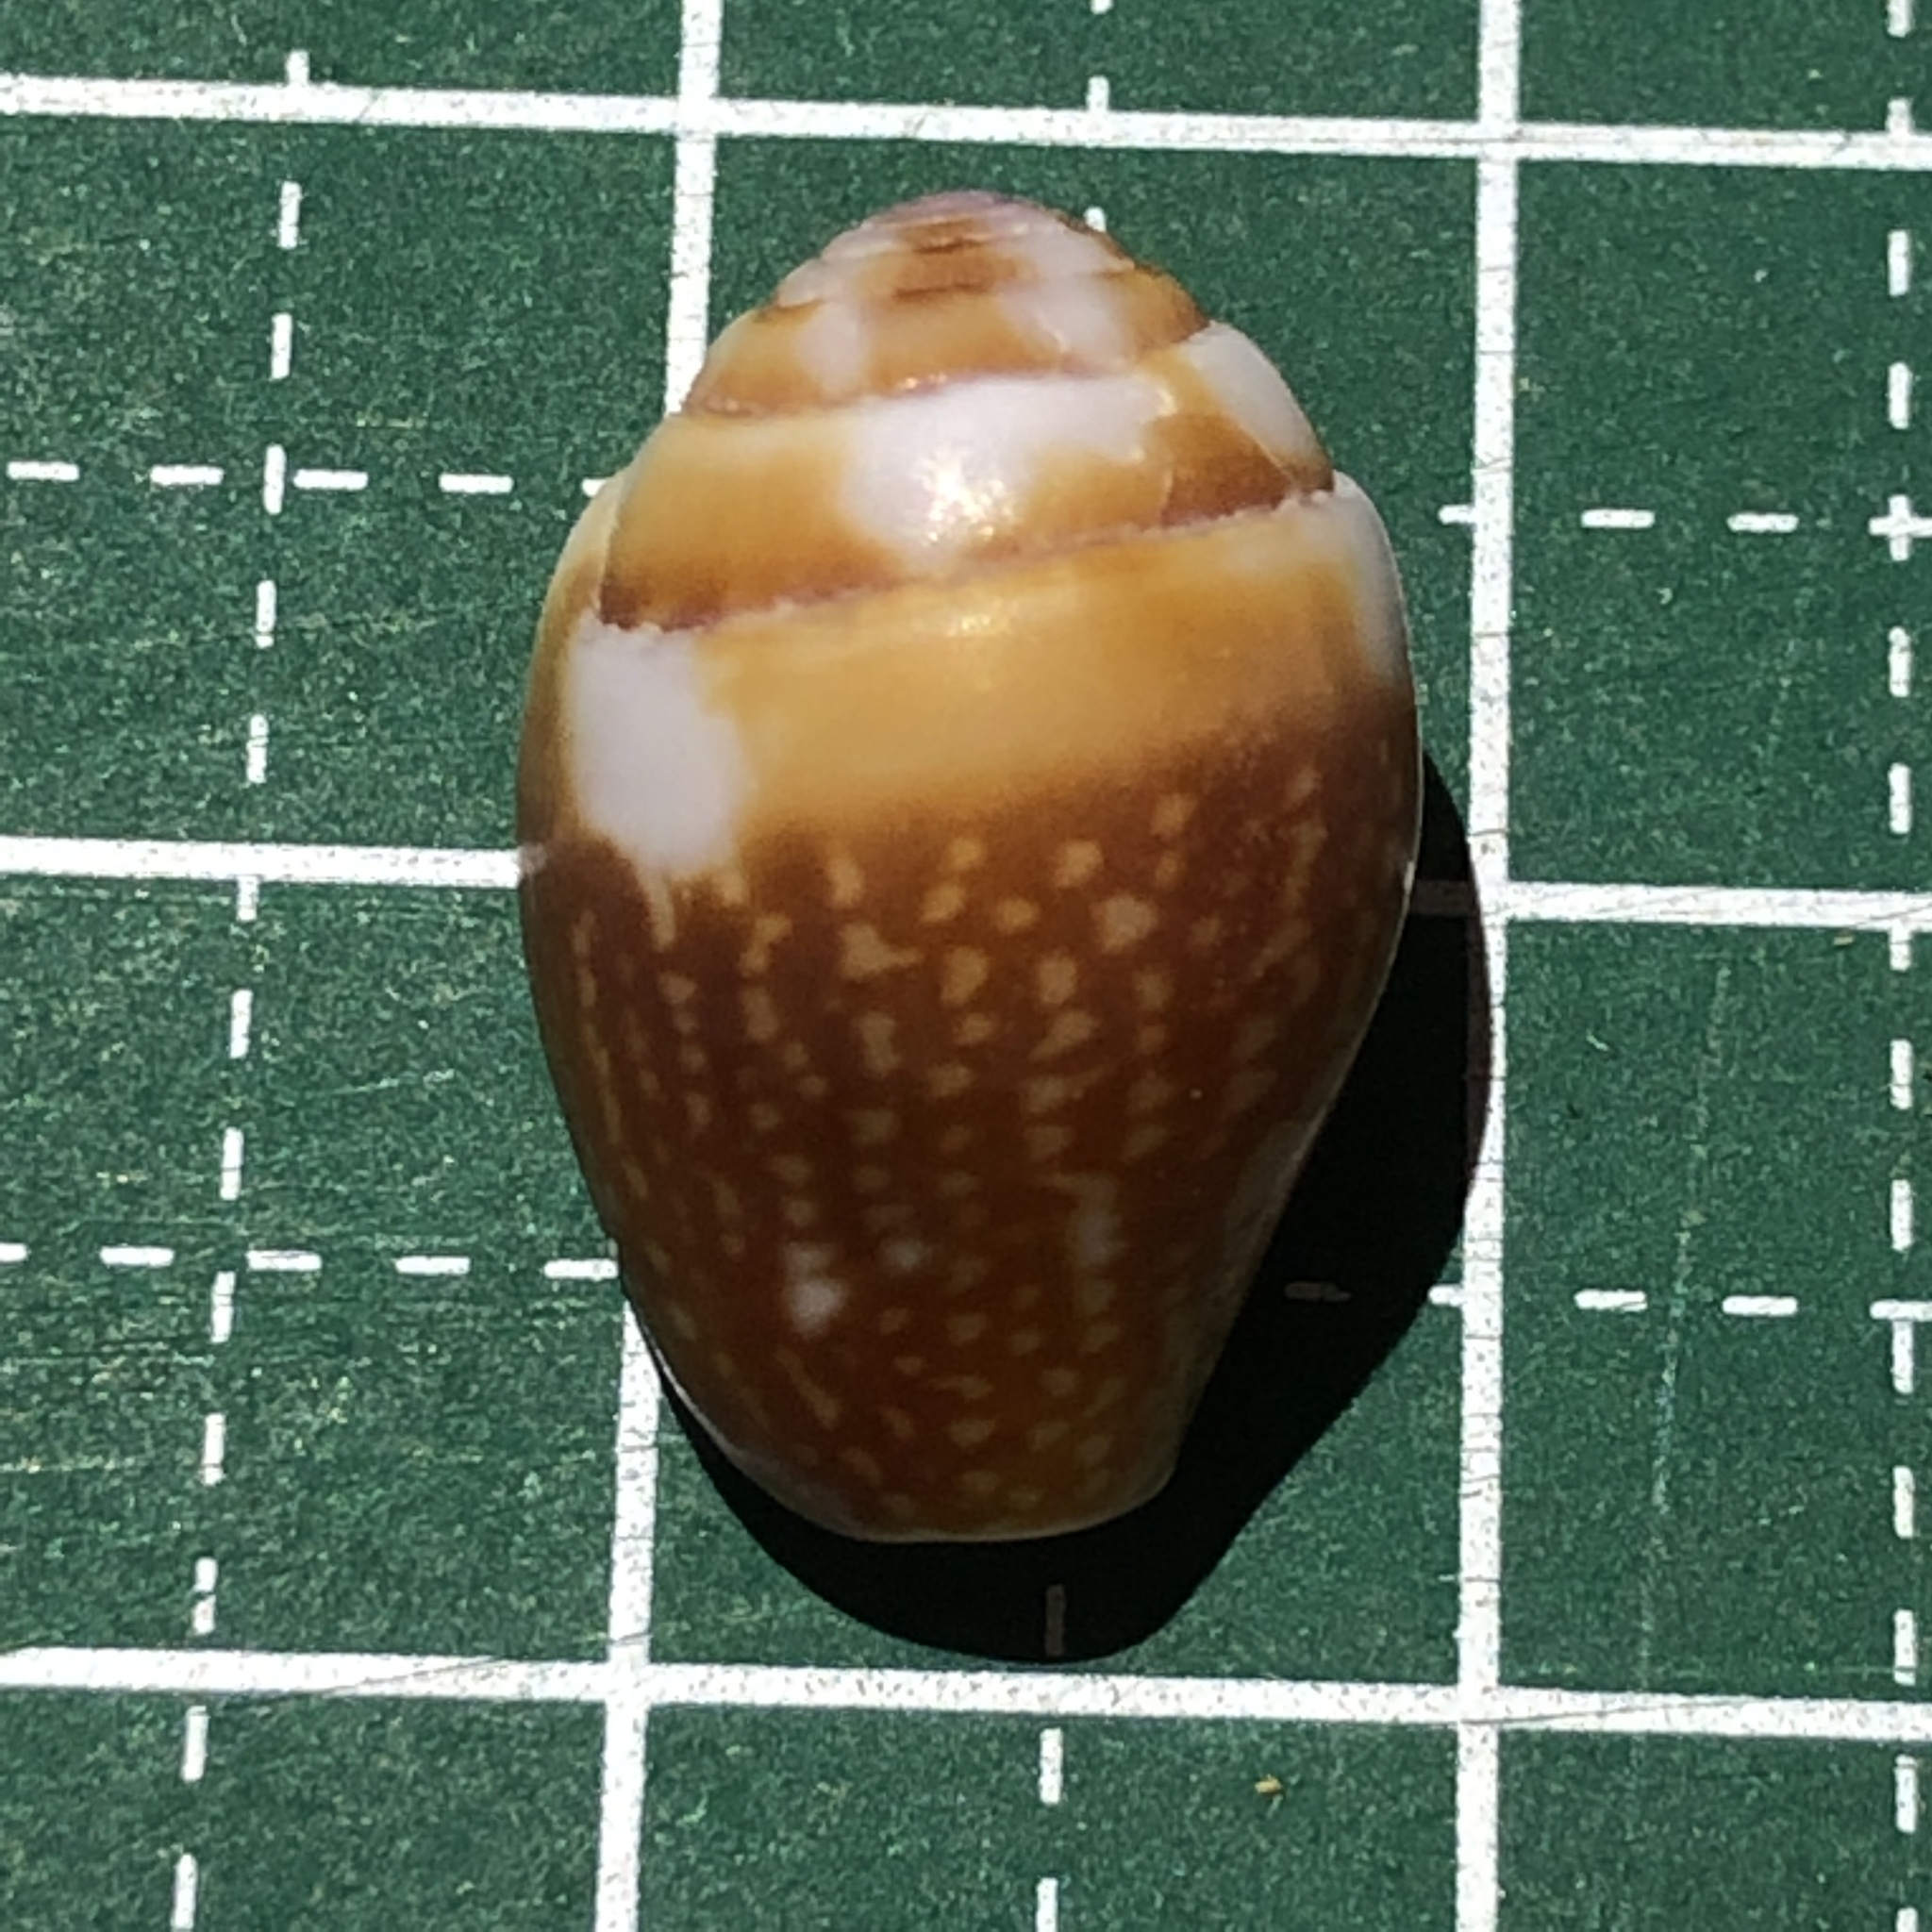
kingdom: Animalia
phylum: Mollusca
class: Gastropoda
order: Neogastropoda
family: Columbellidae
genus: Pyrene
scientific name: Pyrene punctata
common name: Punctate dovesnail
